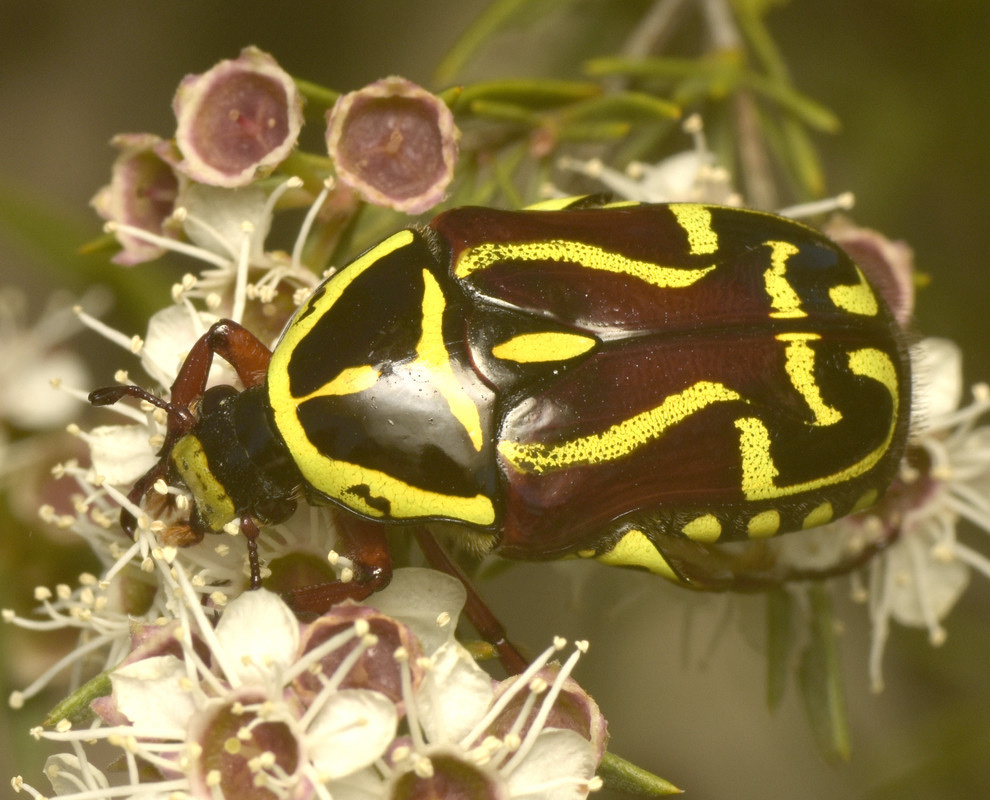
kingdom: Animalia
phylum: Arthropoda
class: Insecta
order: Coleoptera
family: Scarabaeidae
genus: Eupoecila
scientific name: Eupoecila australasiae
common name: Fiddler beetle
